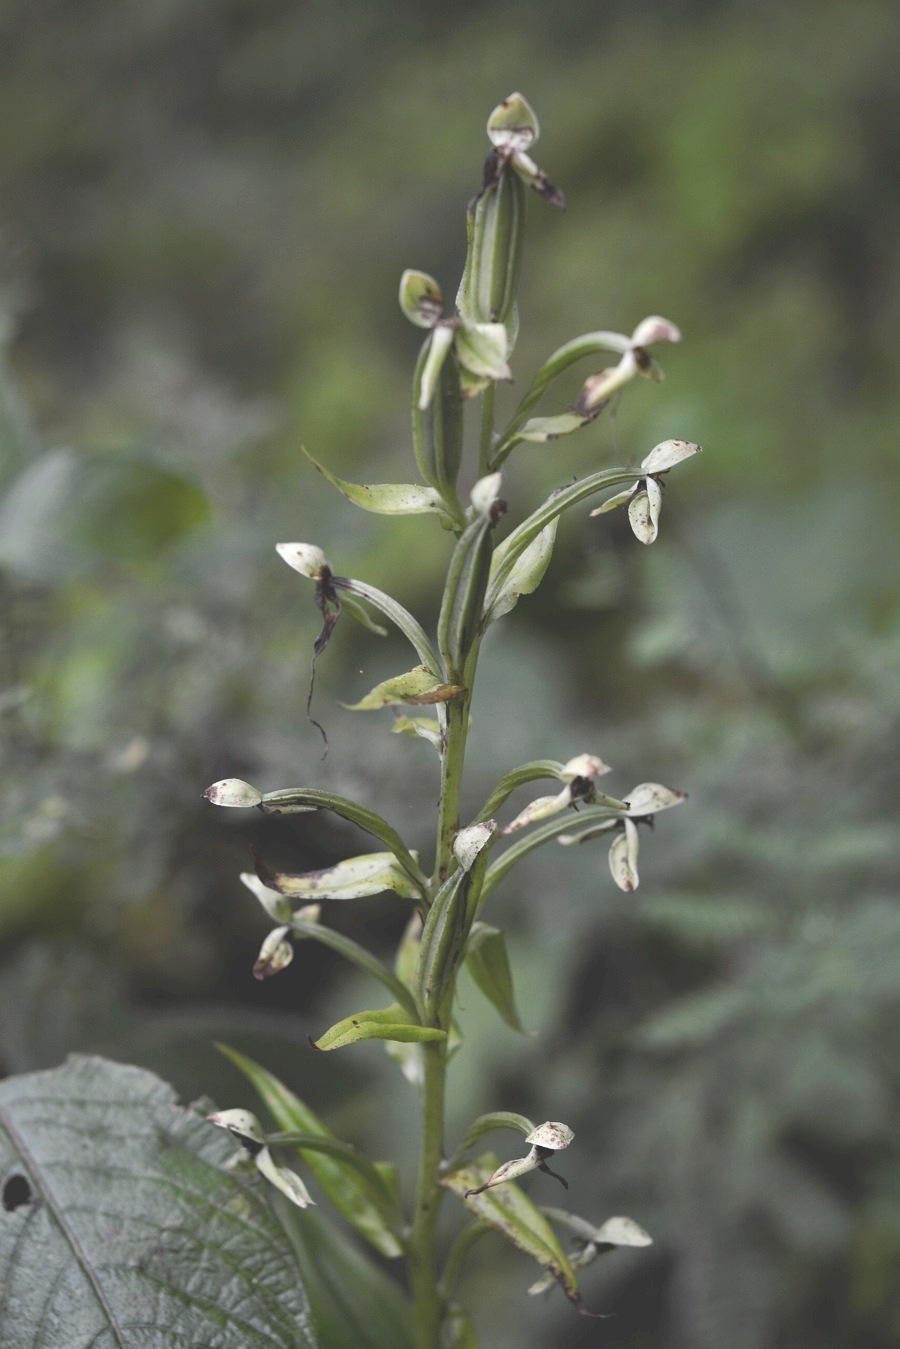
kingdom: Plantae
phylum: Tracheophyta
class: Liliopsida
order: Asparagales
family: Orchidaceae
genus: Habenaria
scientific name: Habenaria macroceratitis
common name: Big-horn bog orchid
